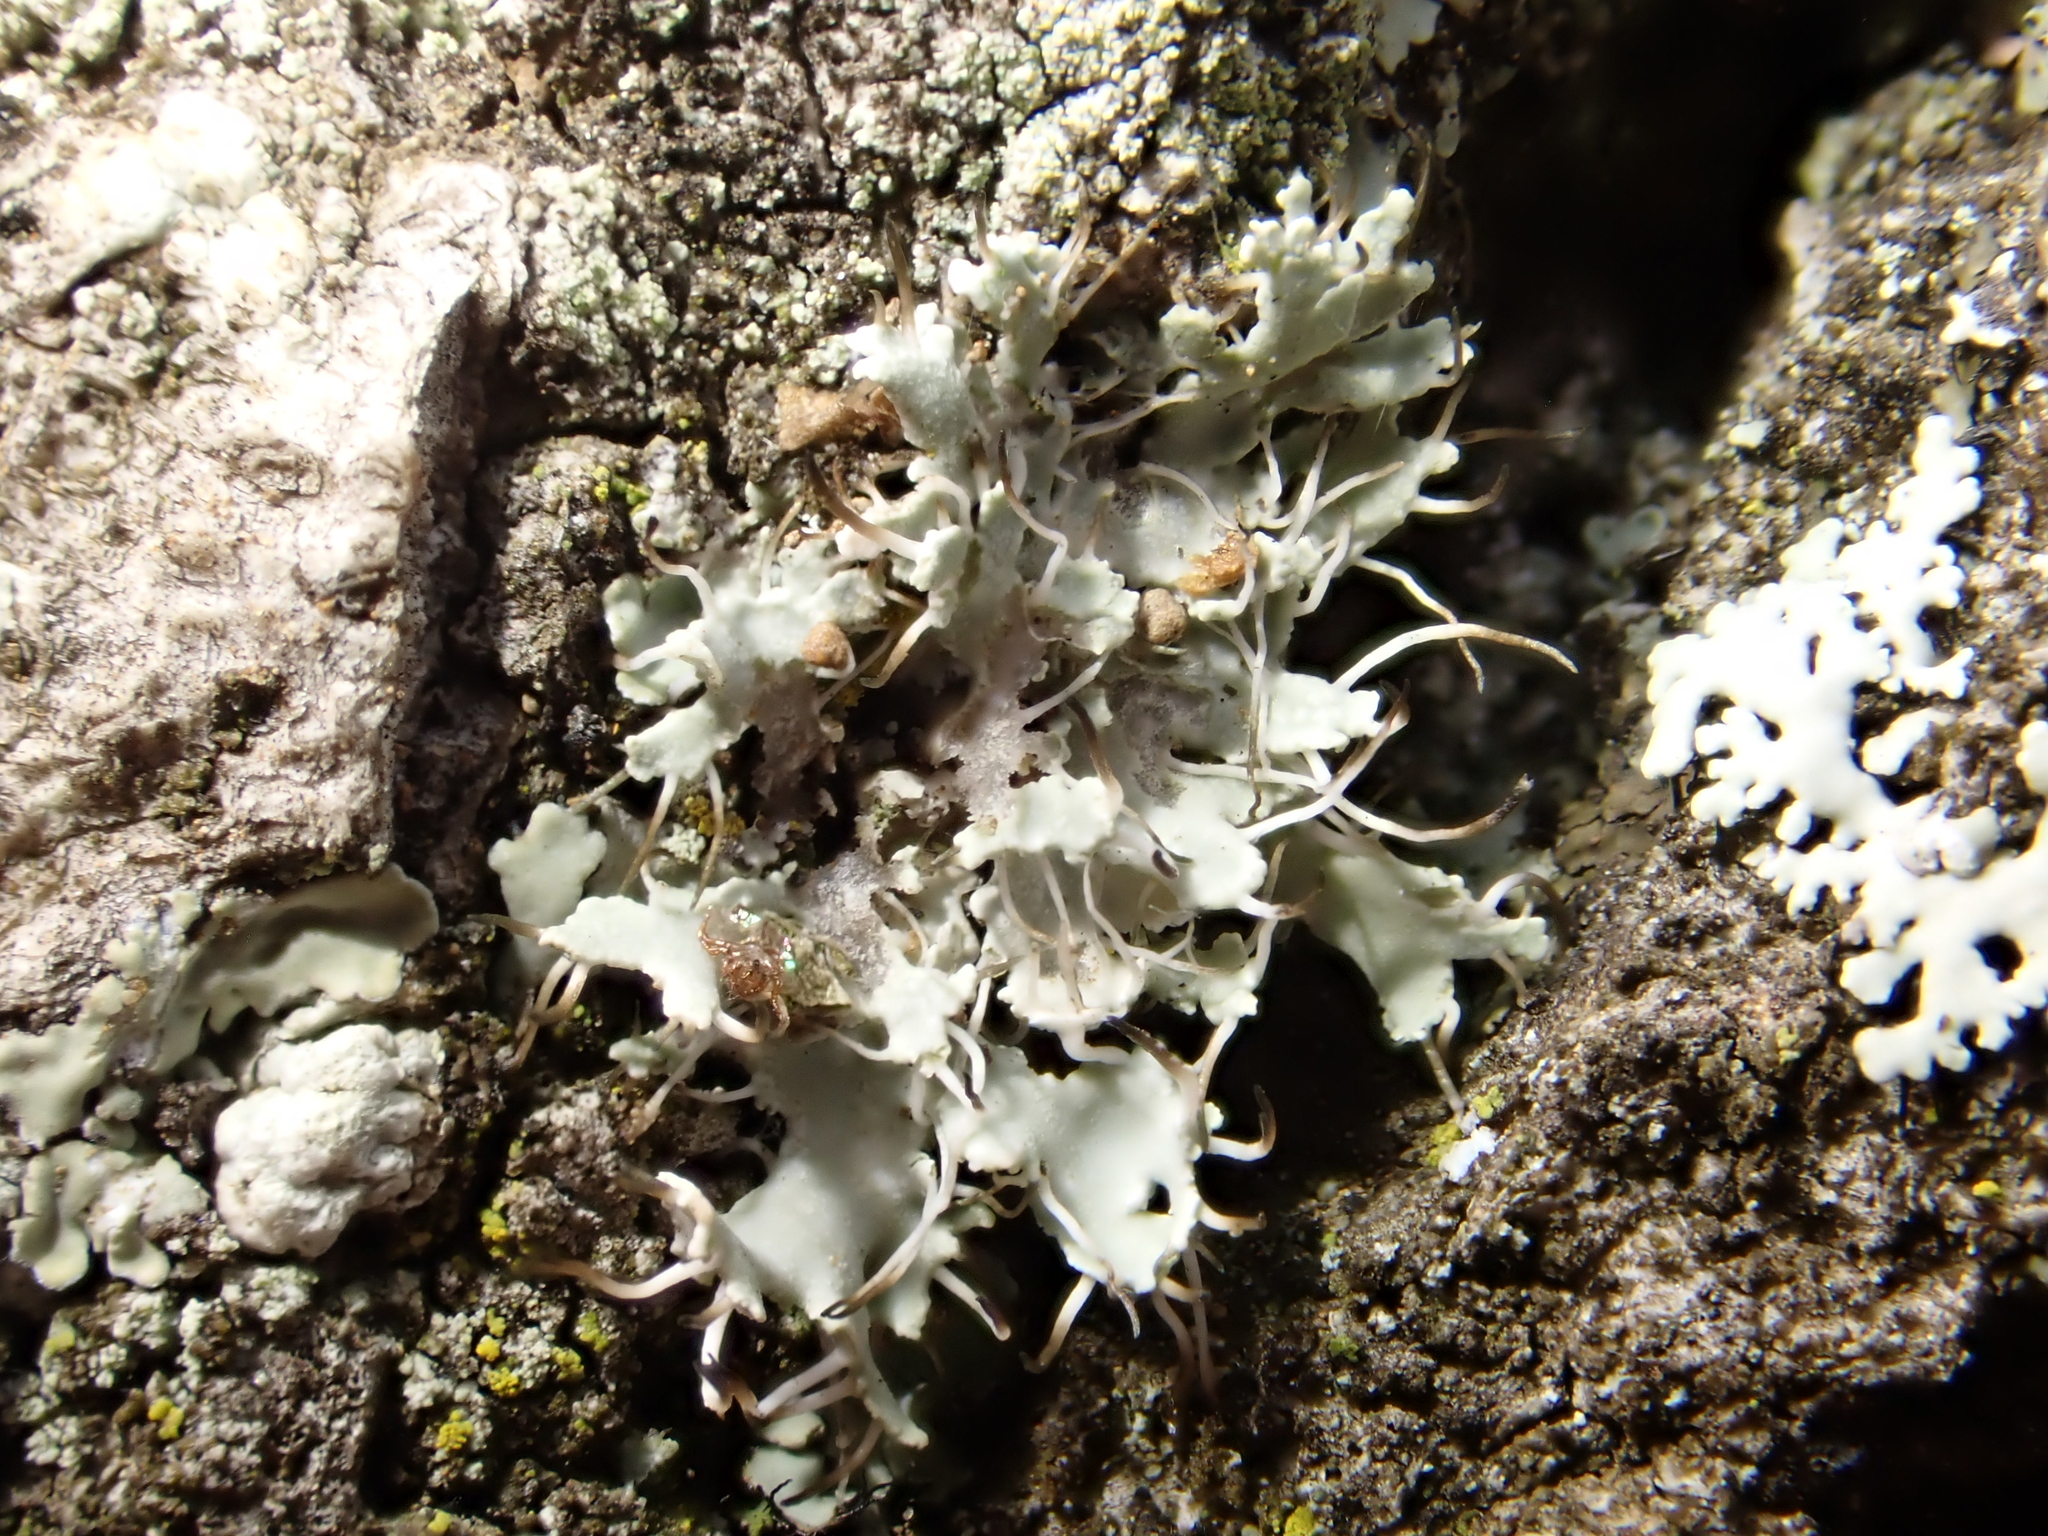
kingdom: Fungi
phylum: Ascomycota
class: Lecanoromycetes
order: Caliciales
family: Physciaceae
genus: Physcia
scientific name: Physcia adscendens
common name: Hooded rosette lichen
